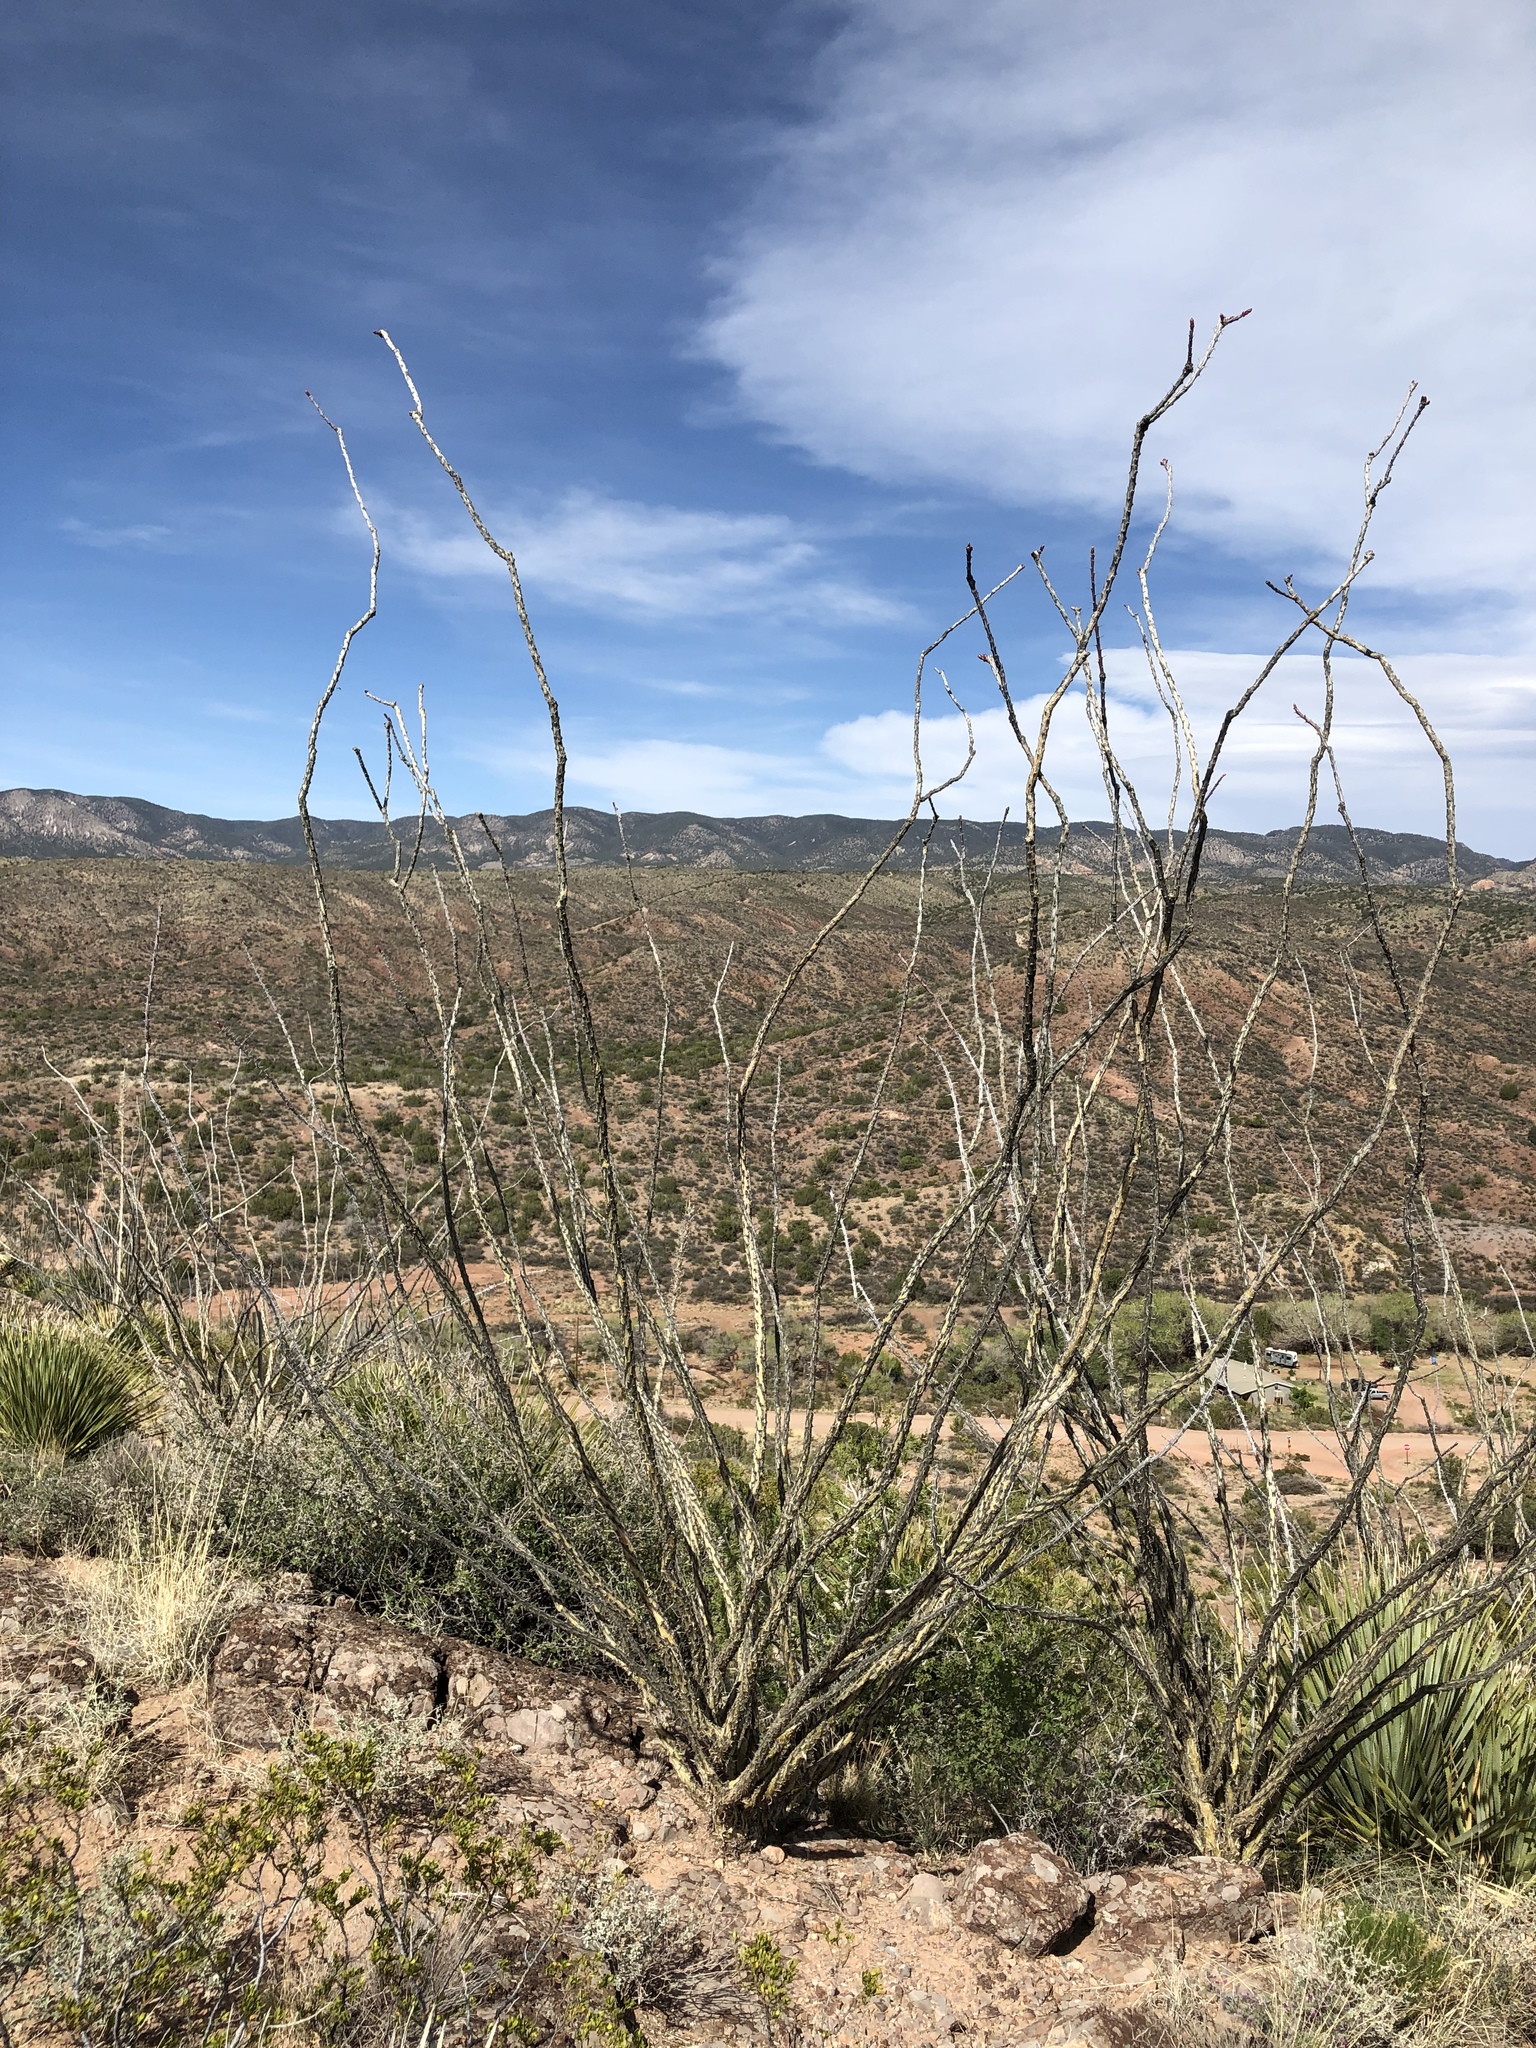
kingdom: Plantae
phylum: Tracheophyta
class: Magnoliopsida
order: Ericales
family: Fouquieriaceae
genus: Fouquieria
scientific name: Fouquieria splendens
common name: Vine-cactus
